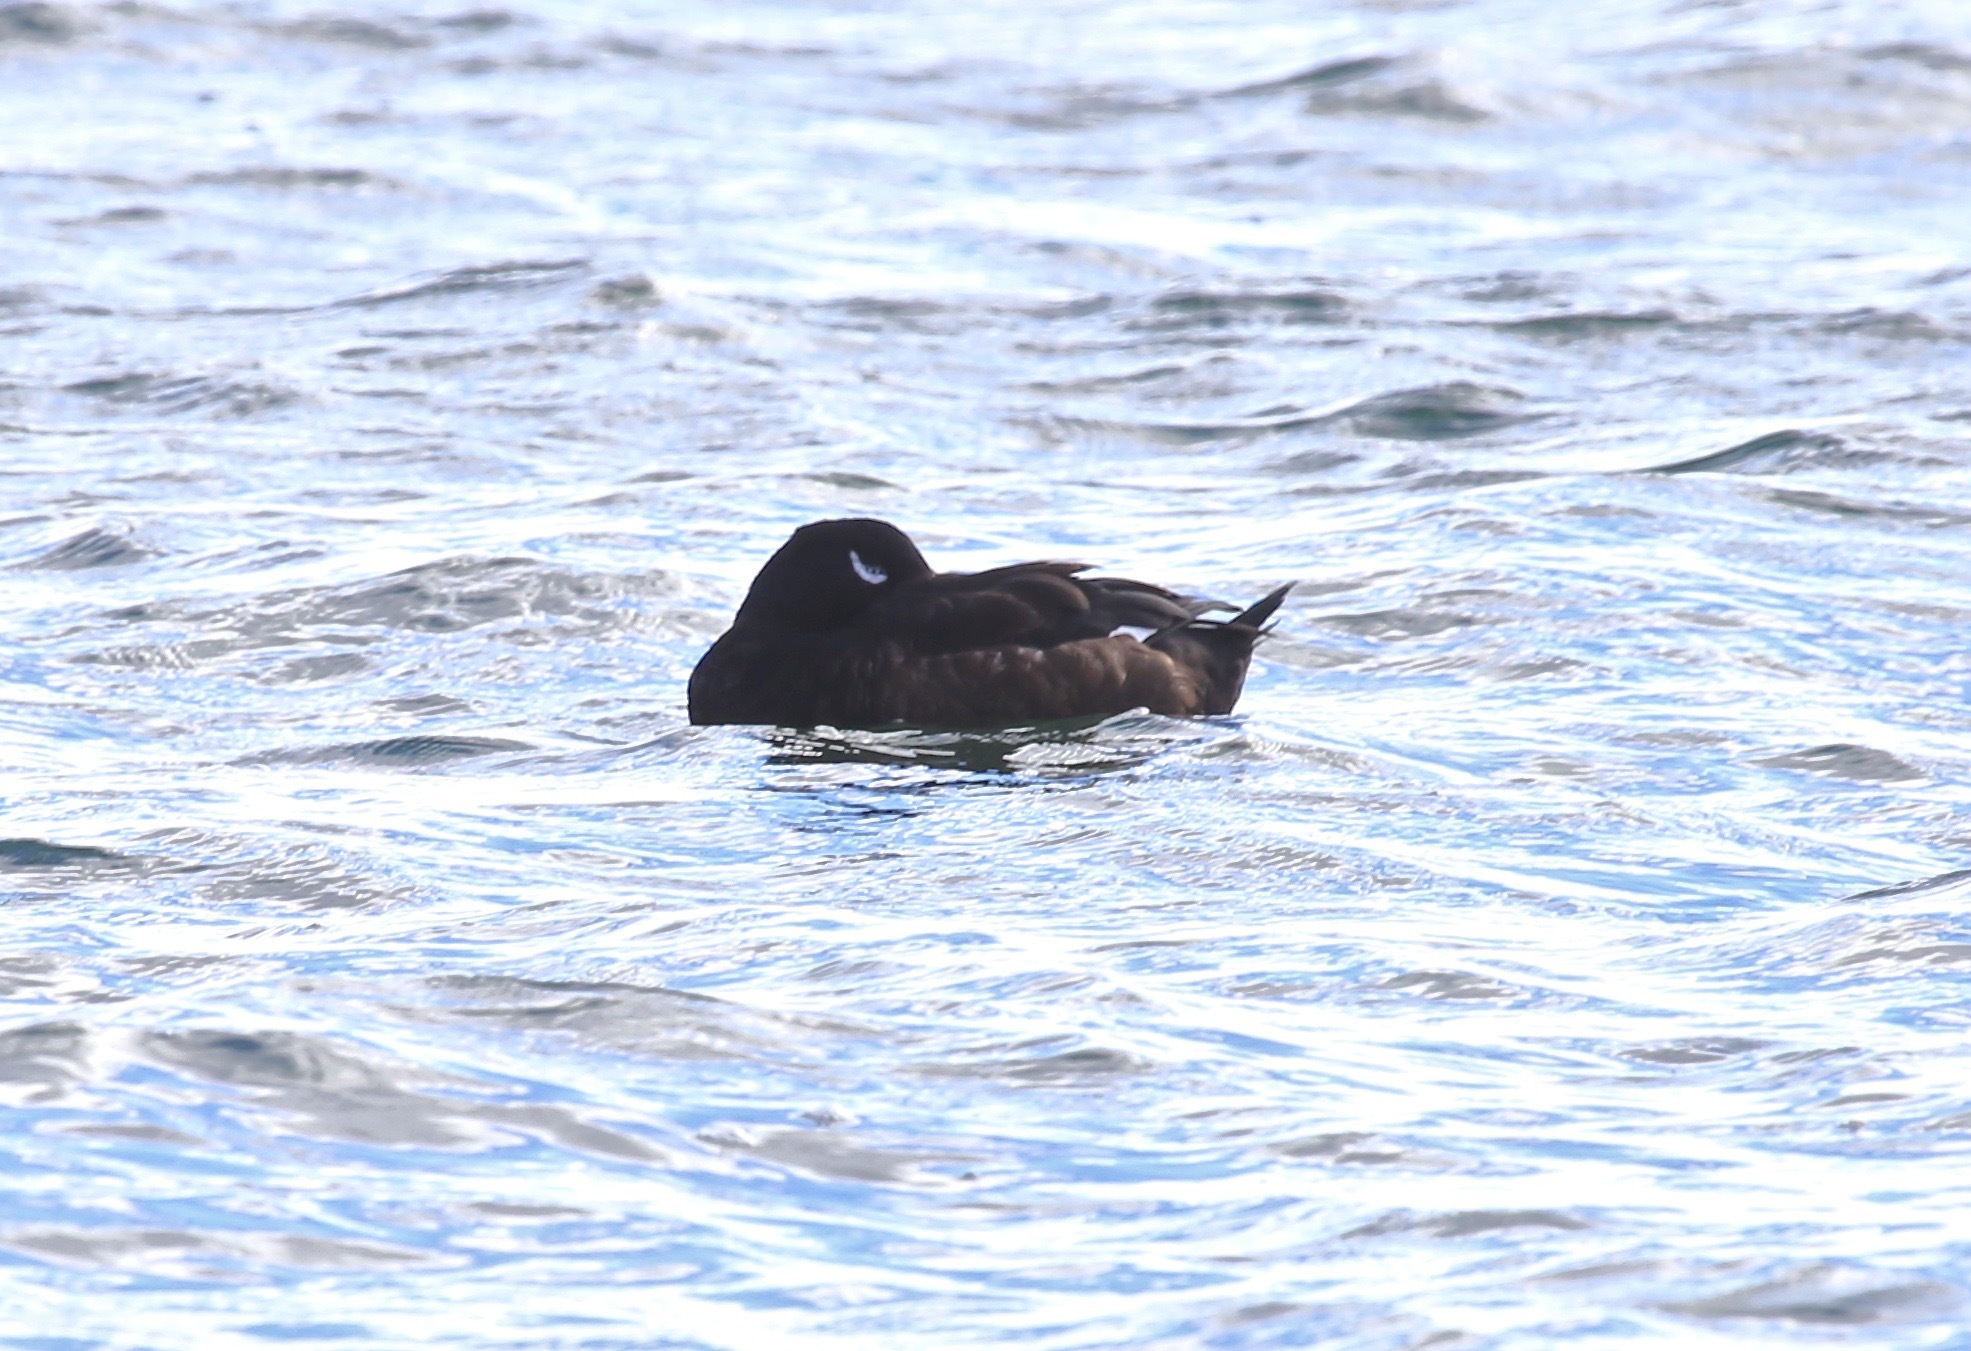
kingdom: Animalia
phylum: Chordata
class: Aves
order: Anseriformes
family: Anatidae
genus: Melanitta
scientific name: Melanitta deglandi
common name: White-winged scoter
